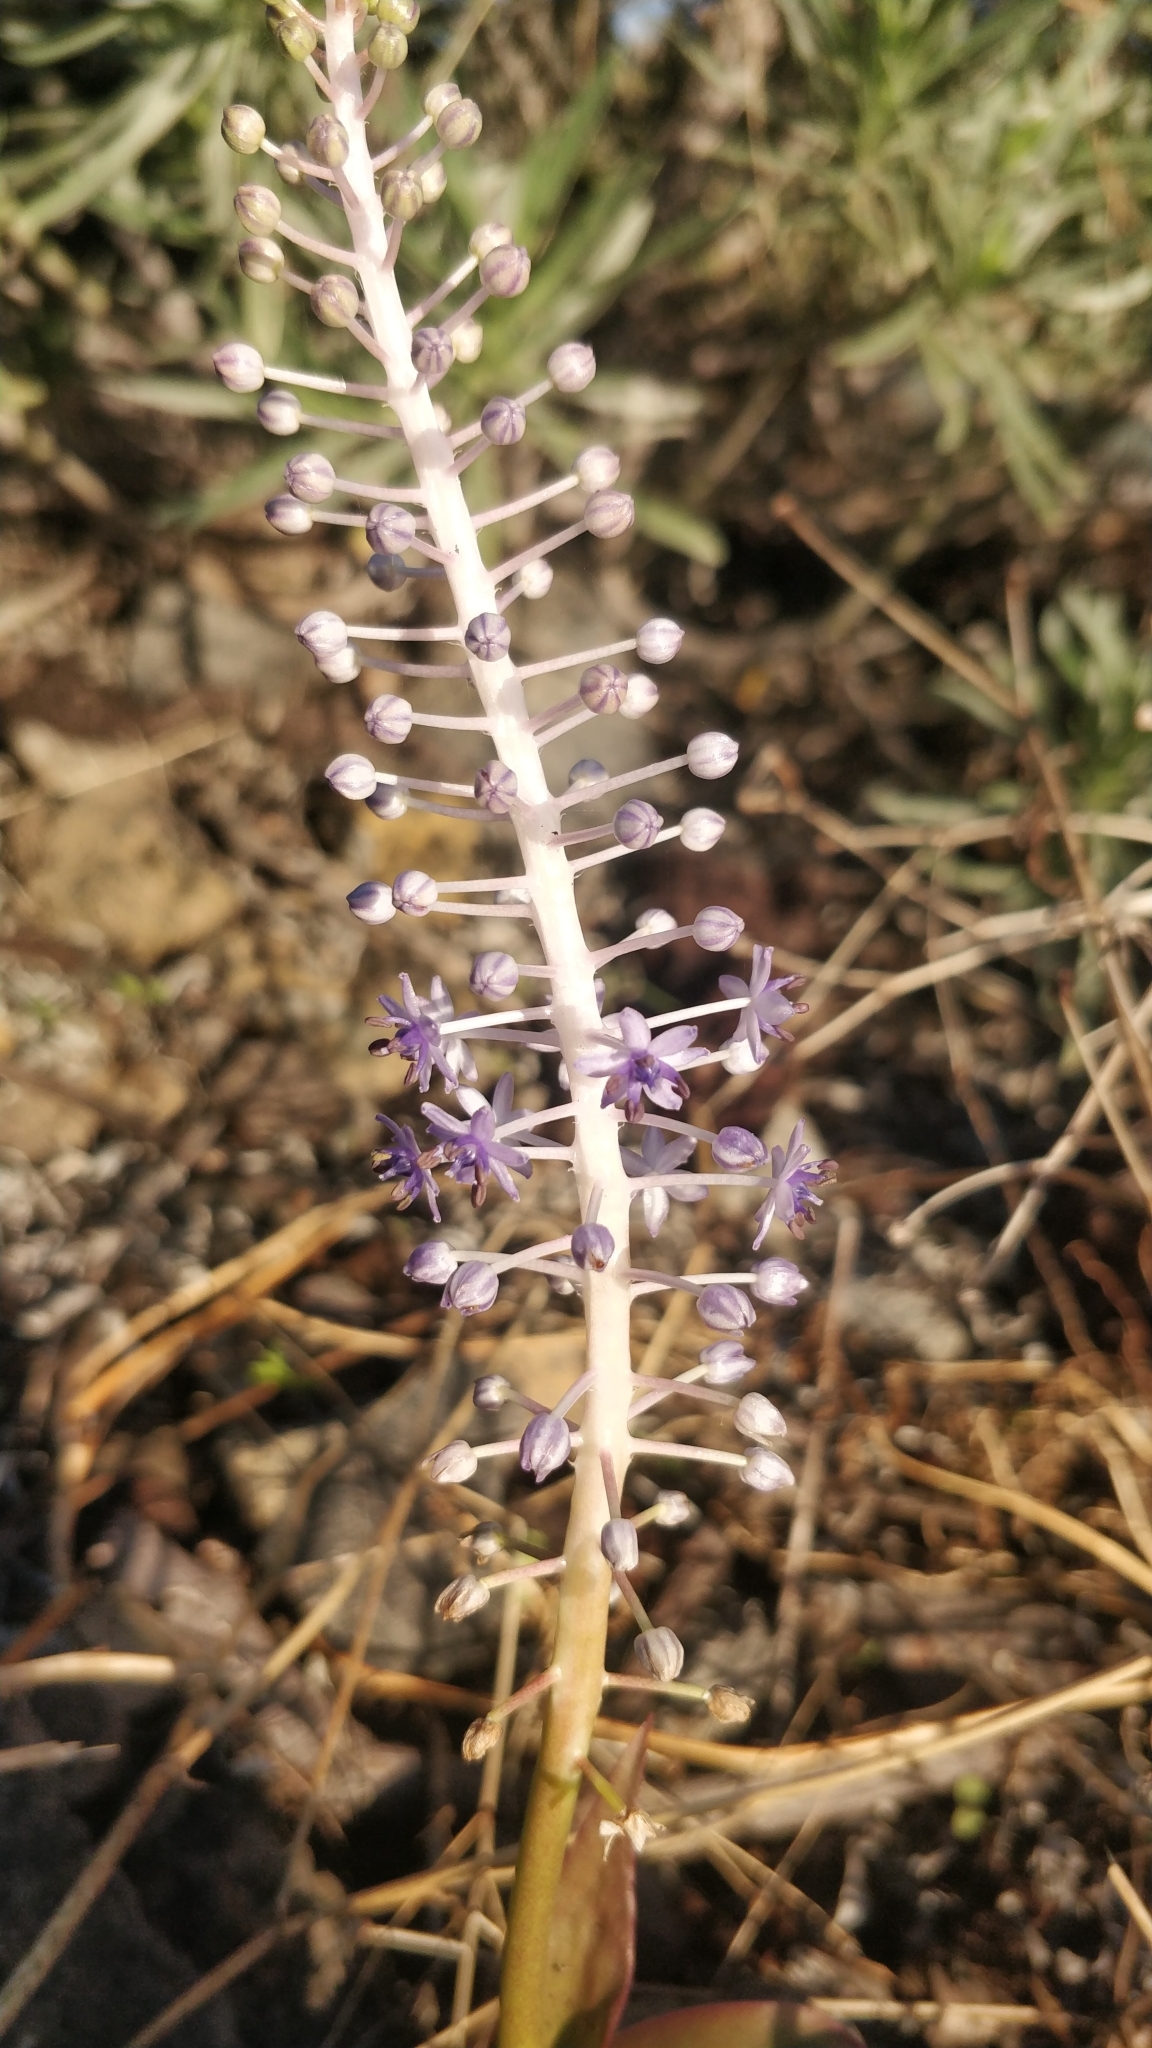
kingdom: Plantae
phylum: Tracheophyta
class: Liliopsida
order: Asparagales
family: Asparagaceae
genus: Scilla
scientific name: Scilla latifolia
